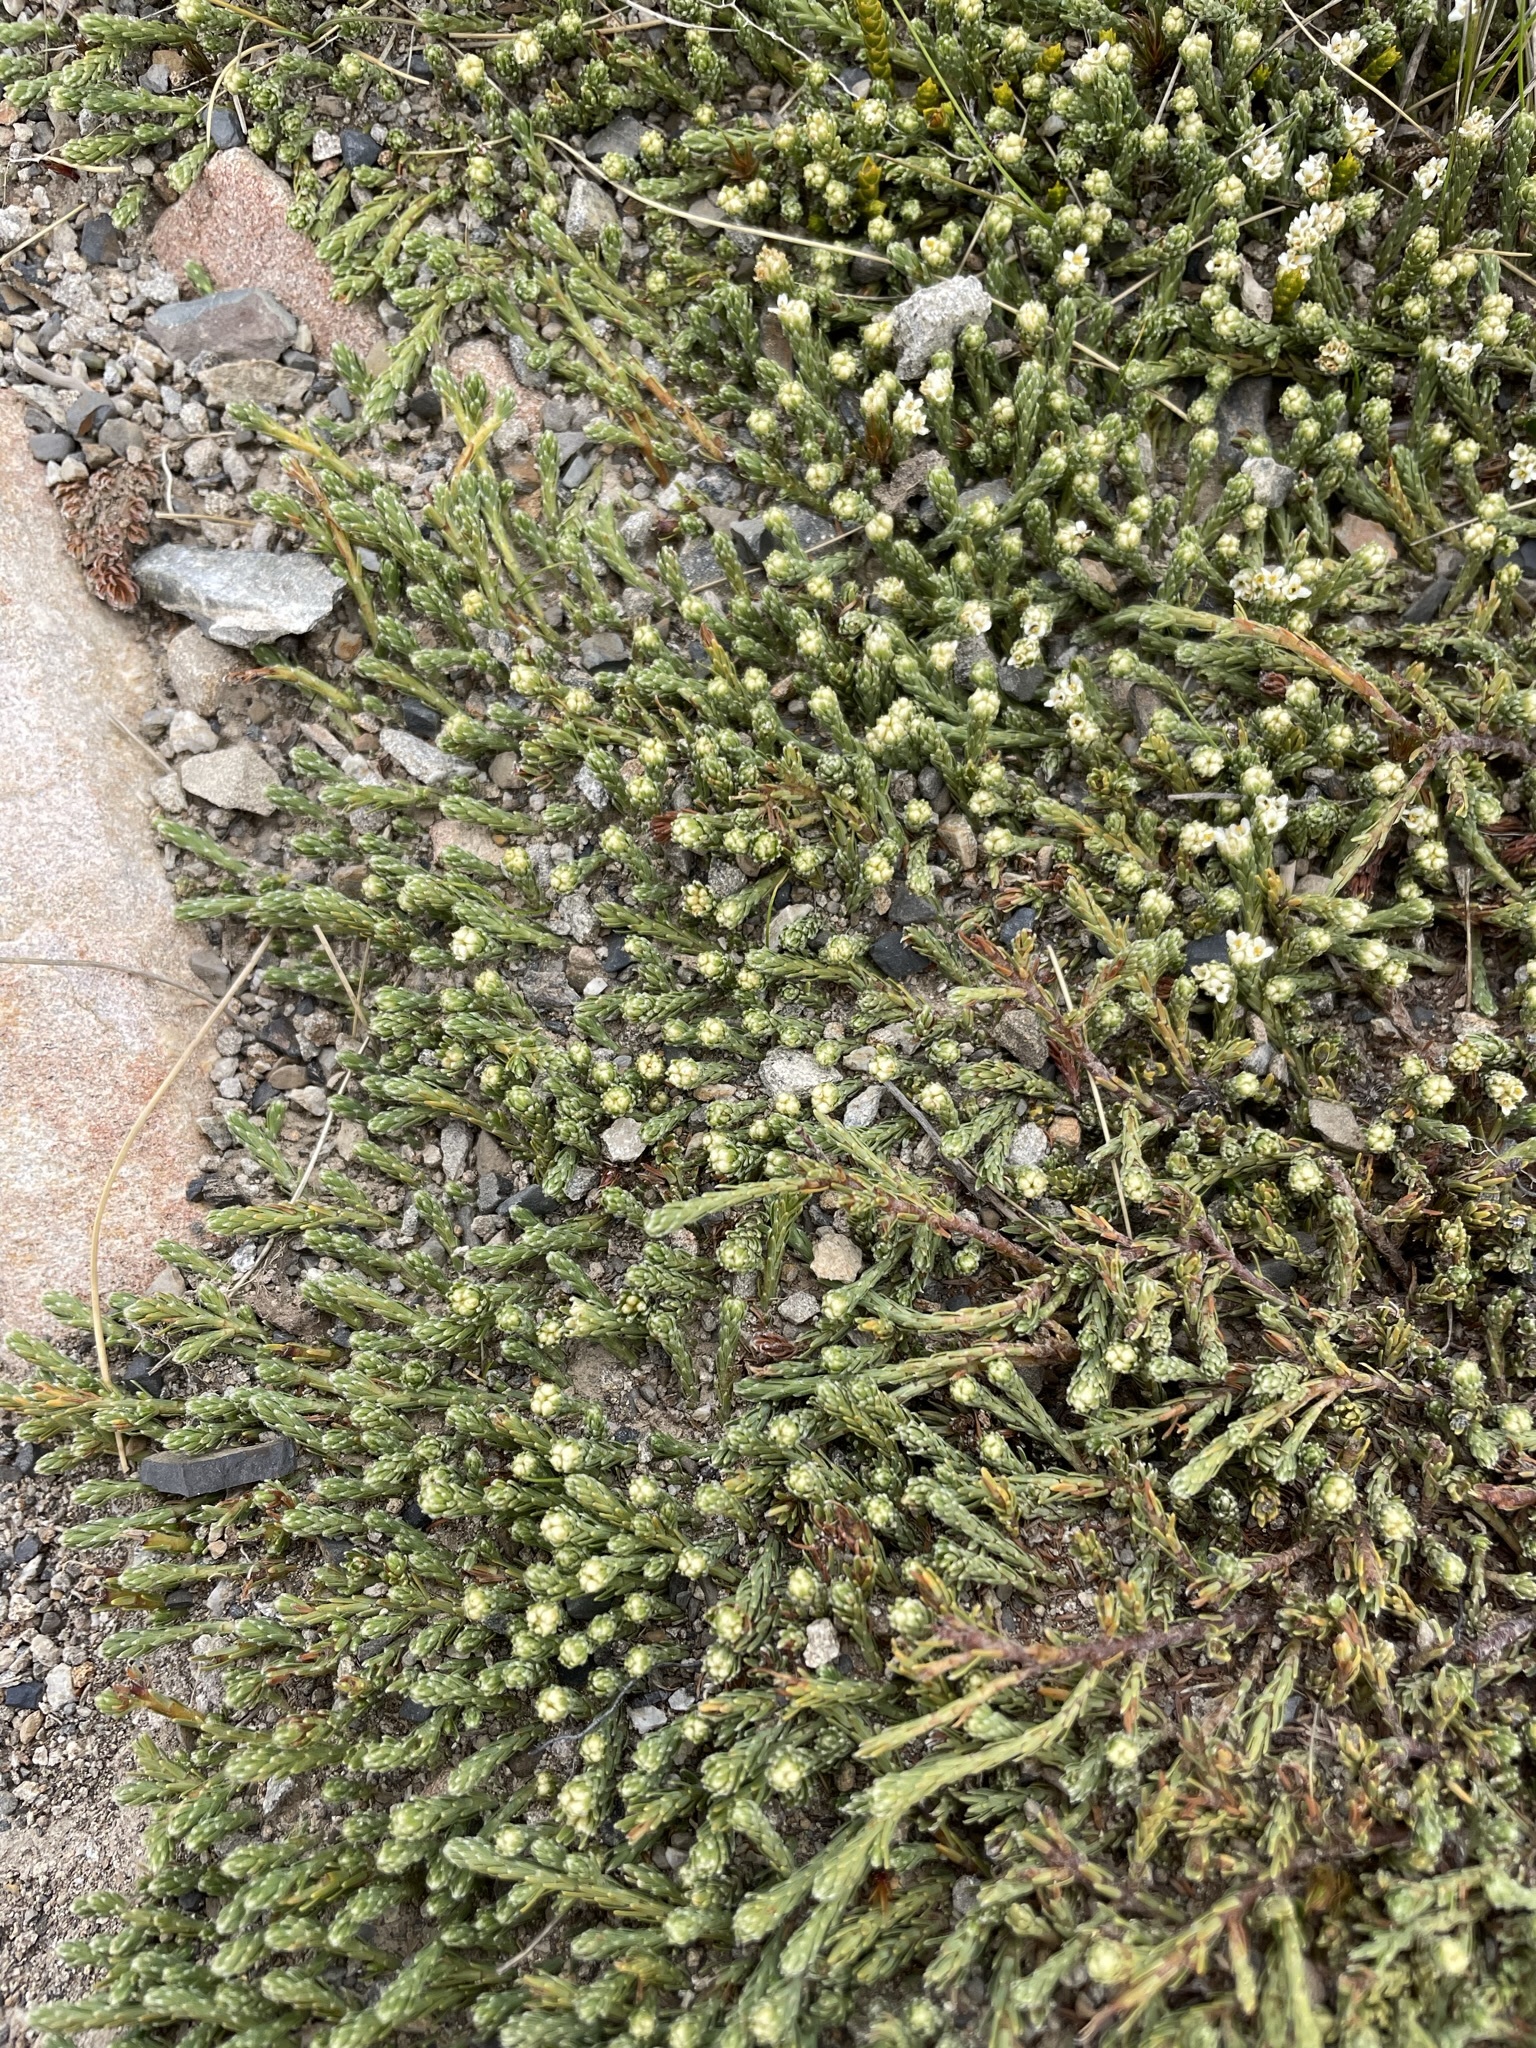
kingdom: Plantae
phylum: Tracheophyta
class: Magnoliopsida
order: Malvales
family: Thymelaeaceae
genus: Kelleria
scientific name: Kelleria dieffenbachii
